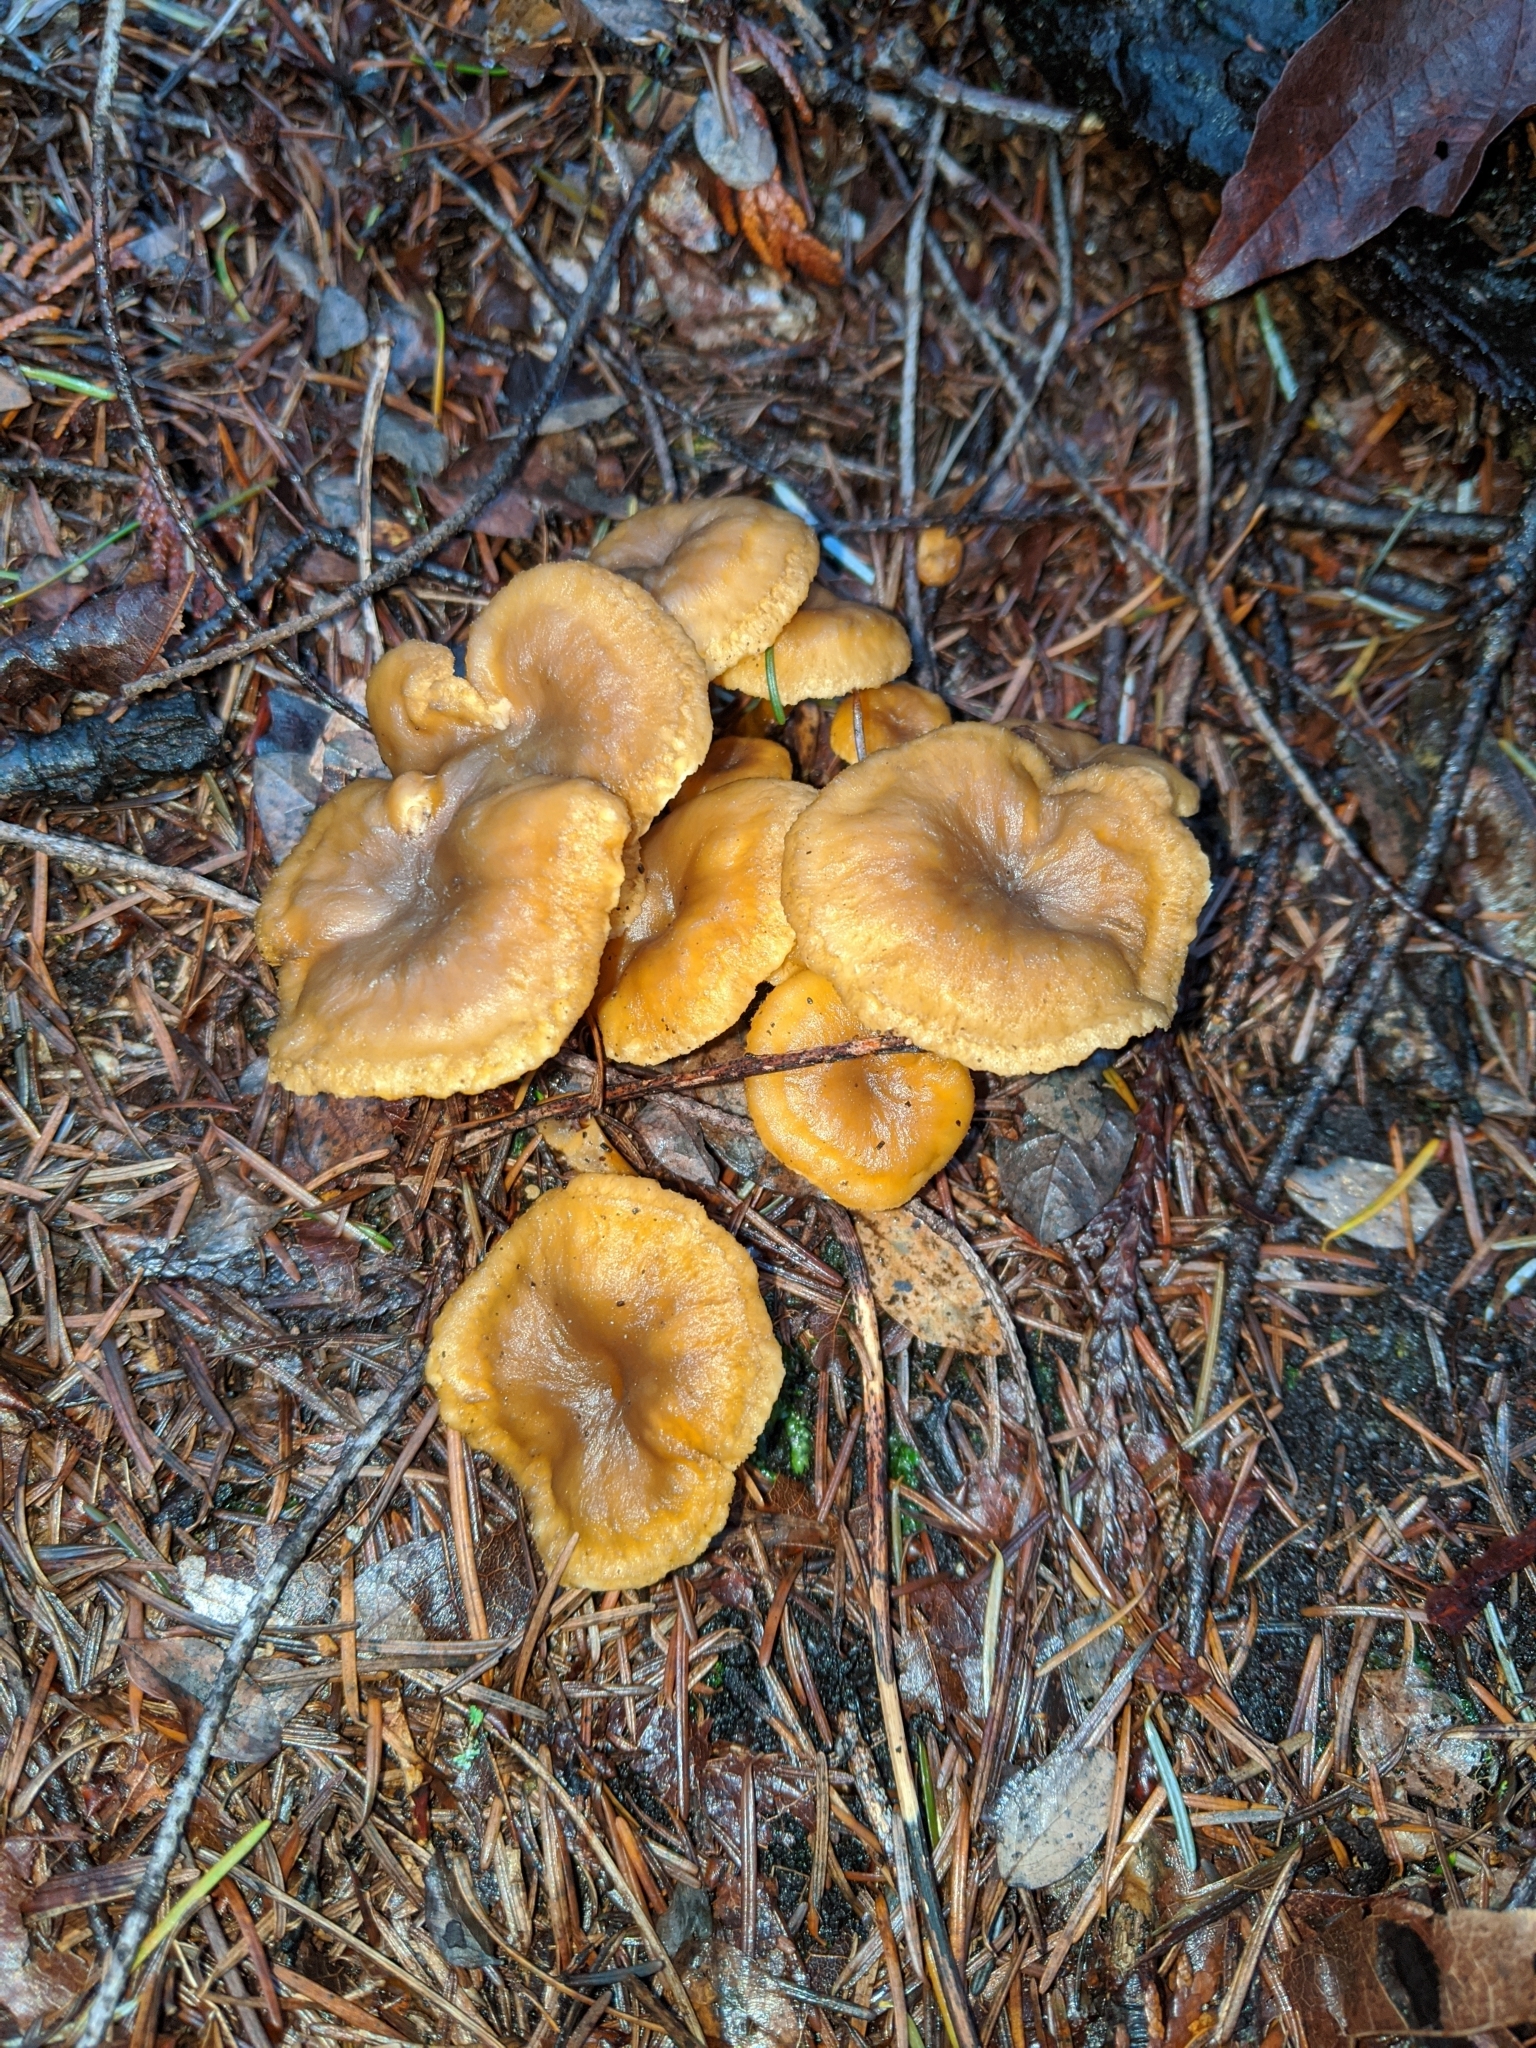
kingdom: Fungi
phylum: Basidiomycota
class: Agaricomycetes
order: Cantharellales
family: Hydnaceae
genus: Craterellus
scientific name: Craterellus tubaeformis
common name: Yellowfoot
